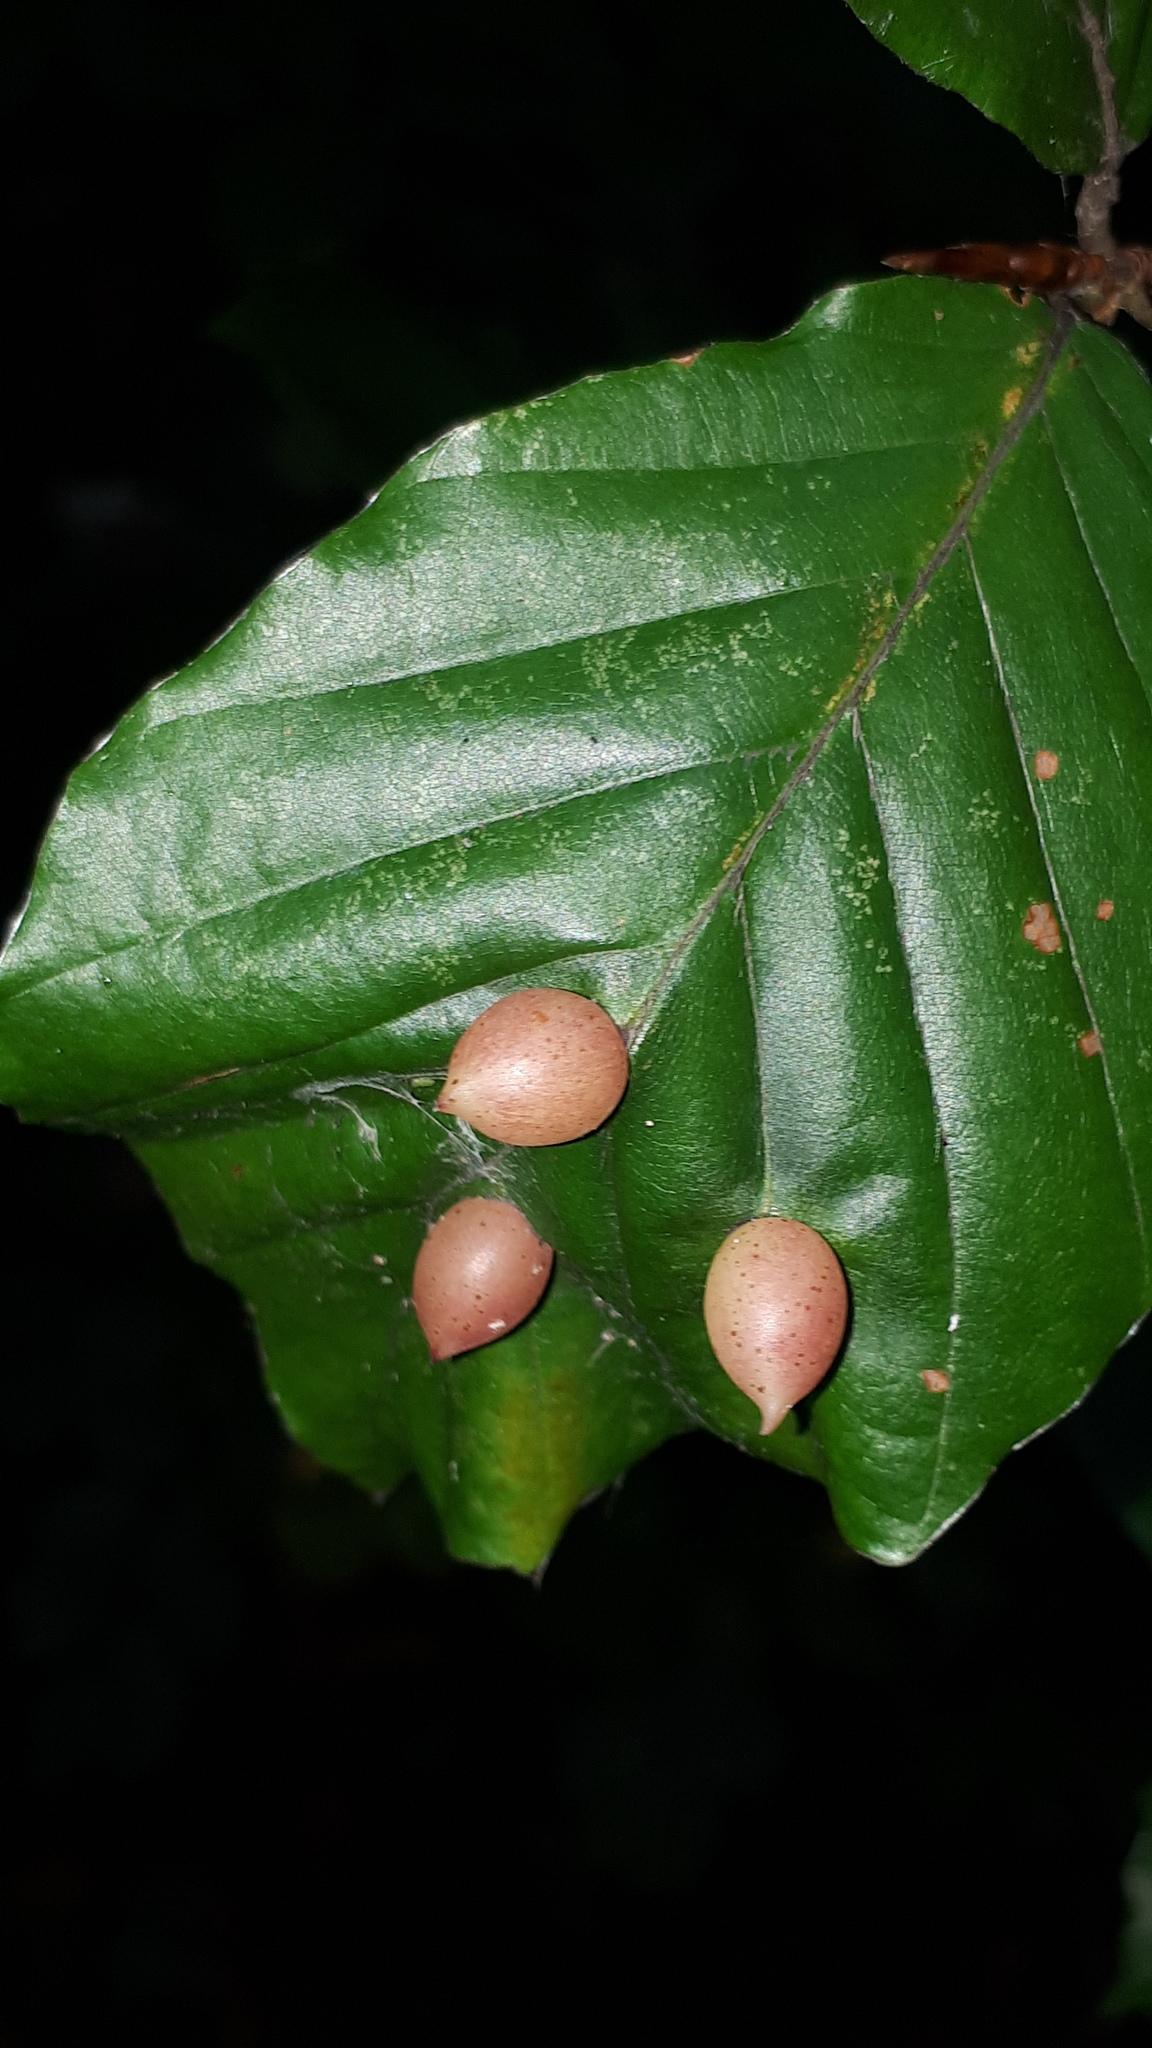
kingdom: Animalia
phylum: Arthropoda
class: Insecta
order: Diptera
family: Cecidomyiidae
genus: Mikiola
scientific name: Mikiola fagi
